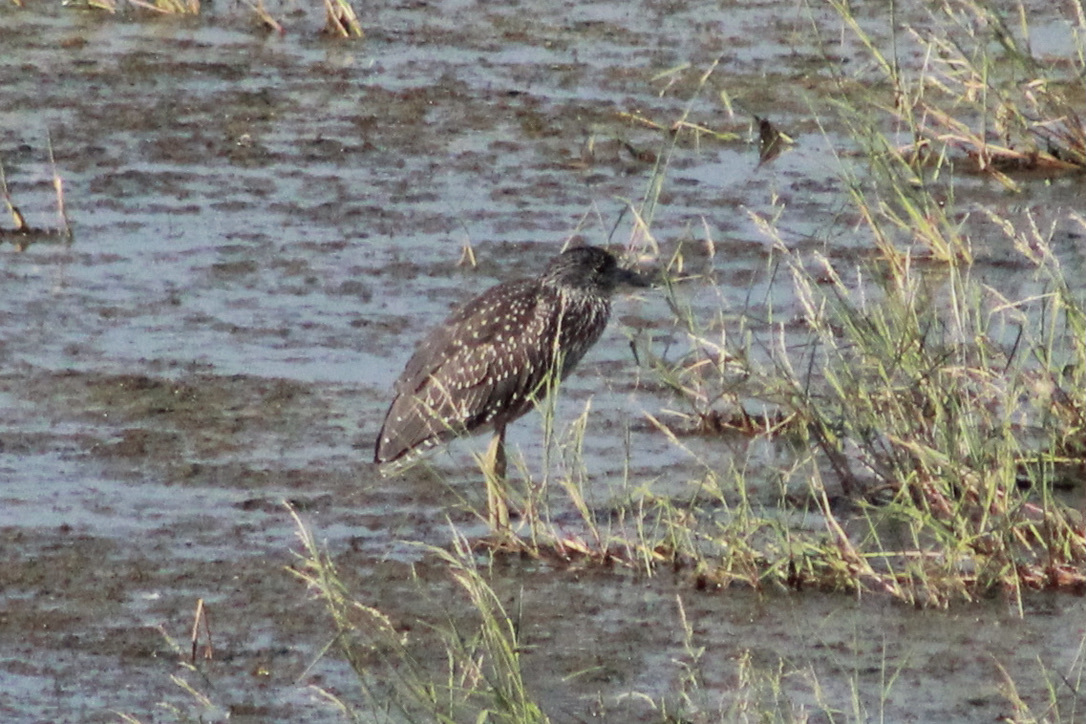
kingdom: Animalia
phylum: Chordata
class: Aves
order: Pelecaniformes
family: Ardeidae
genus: Nyctanassa
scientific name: Nyctanassa violacea
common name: Yellow-crowned night heron
